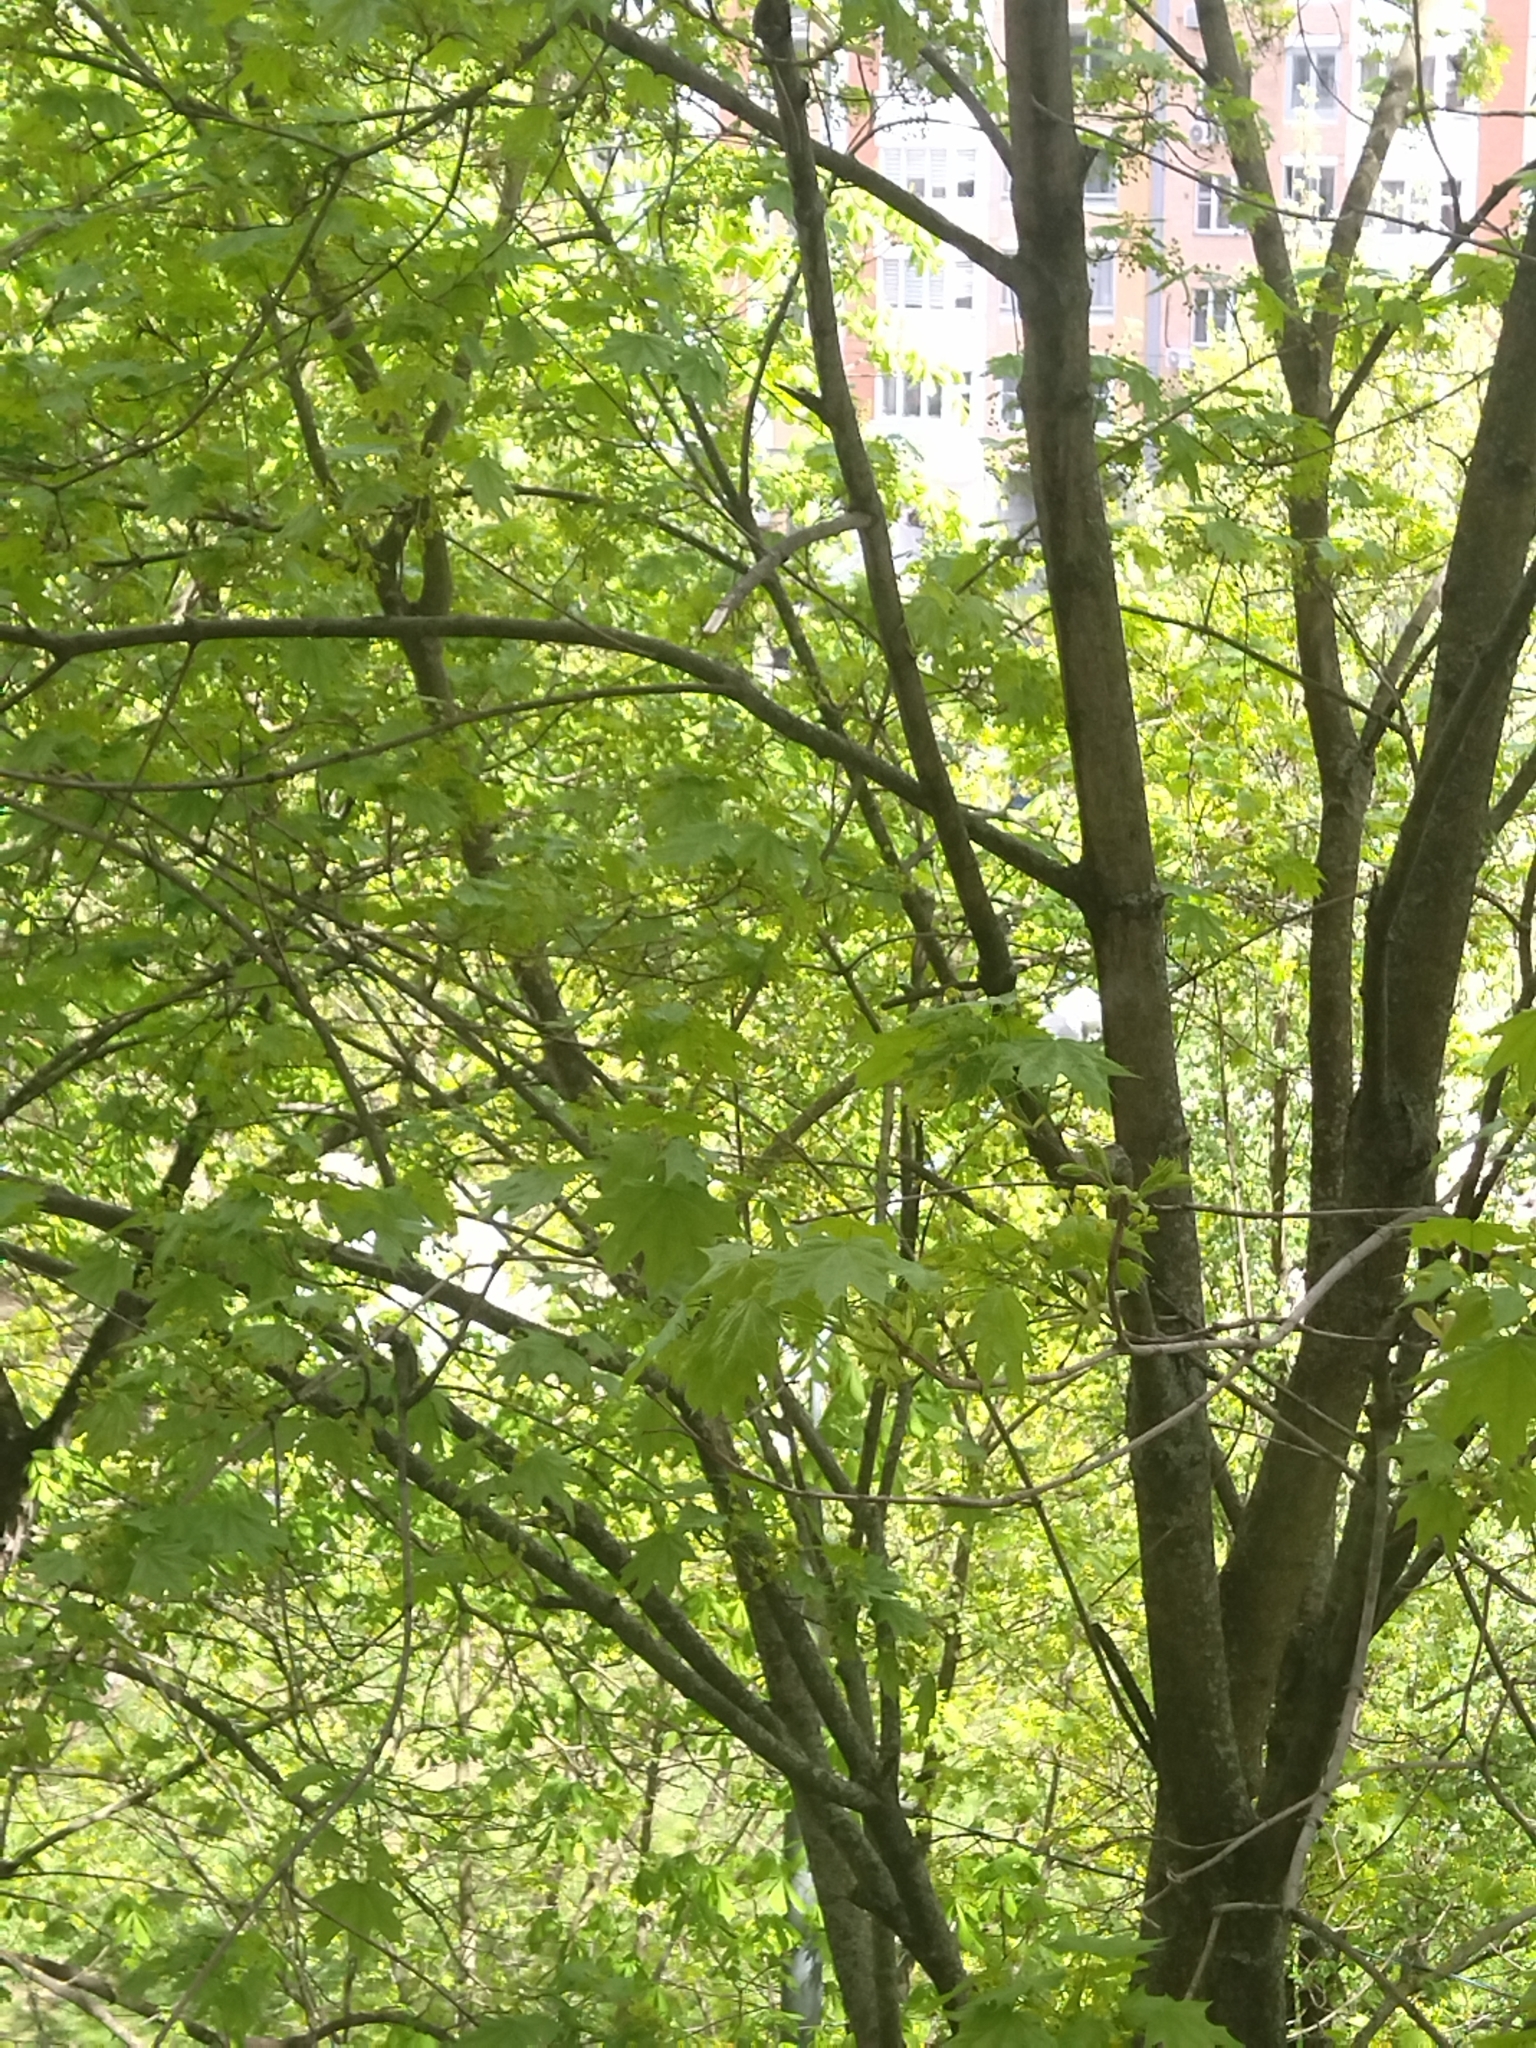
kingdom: Plantae
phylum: Tracheophyta
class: Magnoliopsida
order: Sapindales
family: Sapindaceae
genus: Acer
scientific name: Acer platanoides
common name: Norway maple
